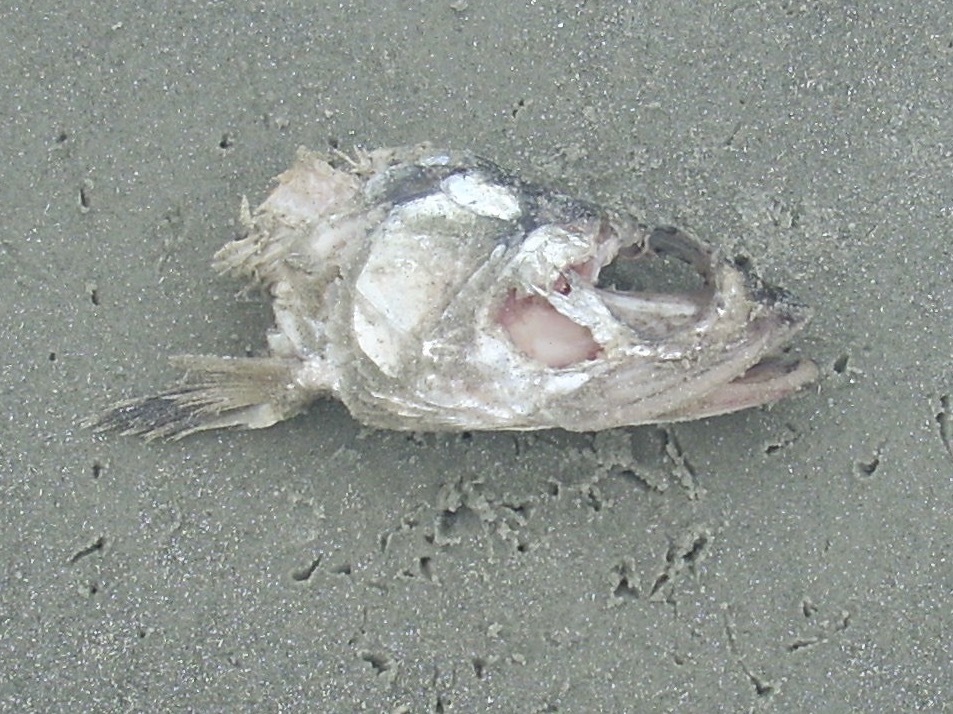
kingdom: Animalia
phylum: Chordata
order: Elopiformes
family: Elopidae
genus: Elops
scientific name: Elops saurus
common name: Ladyfish
